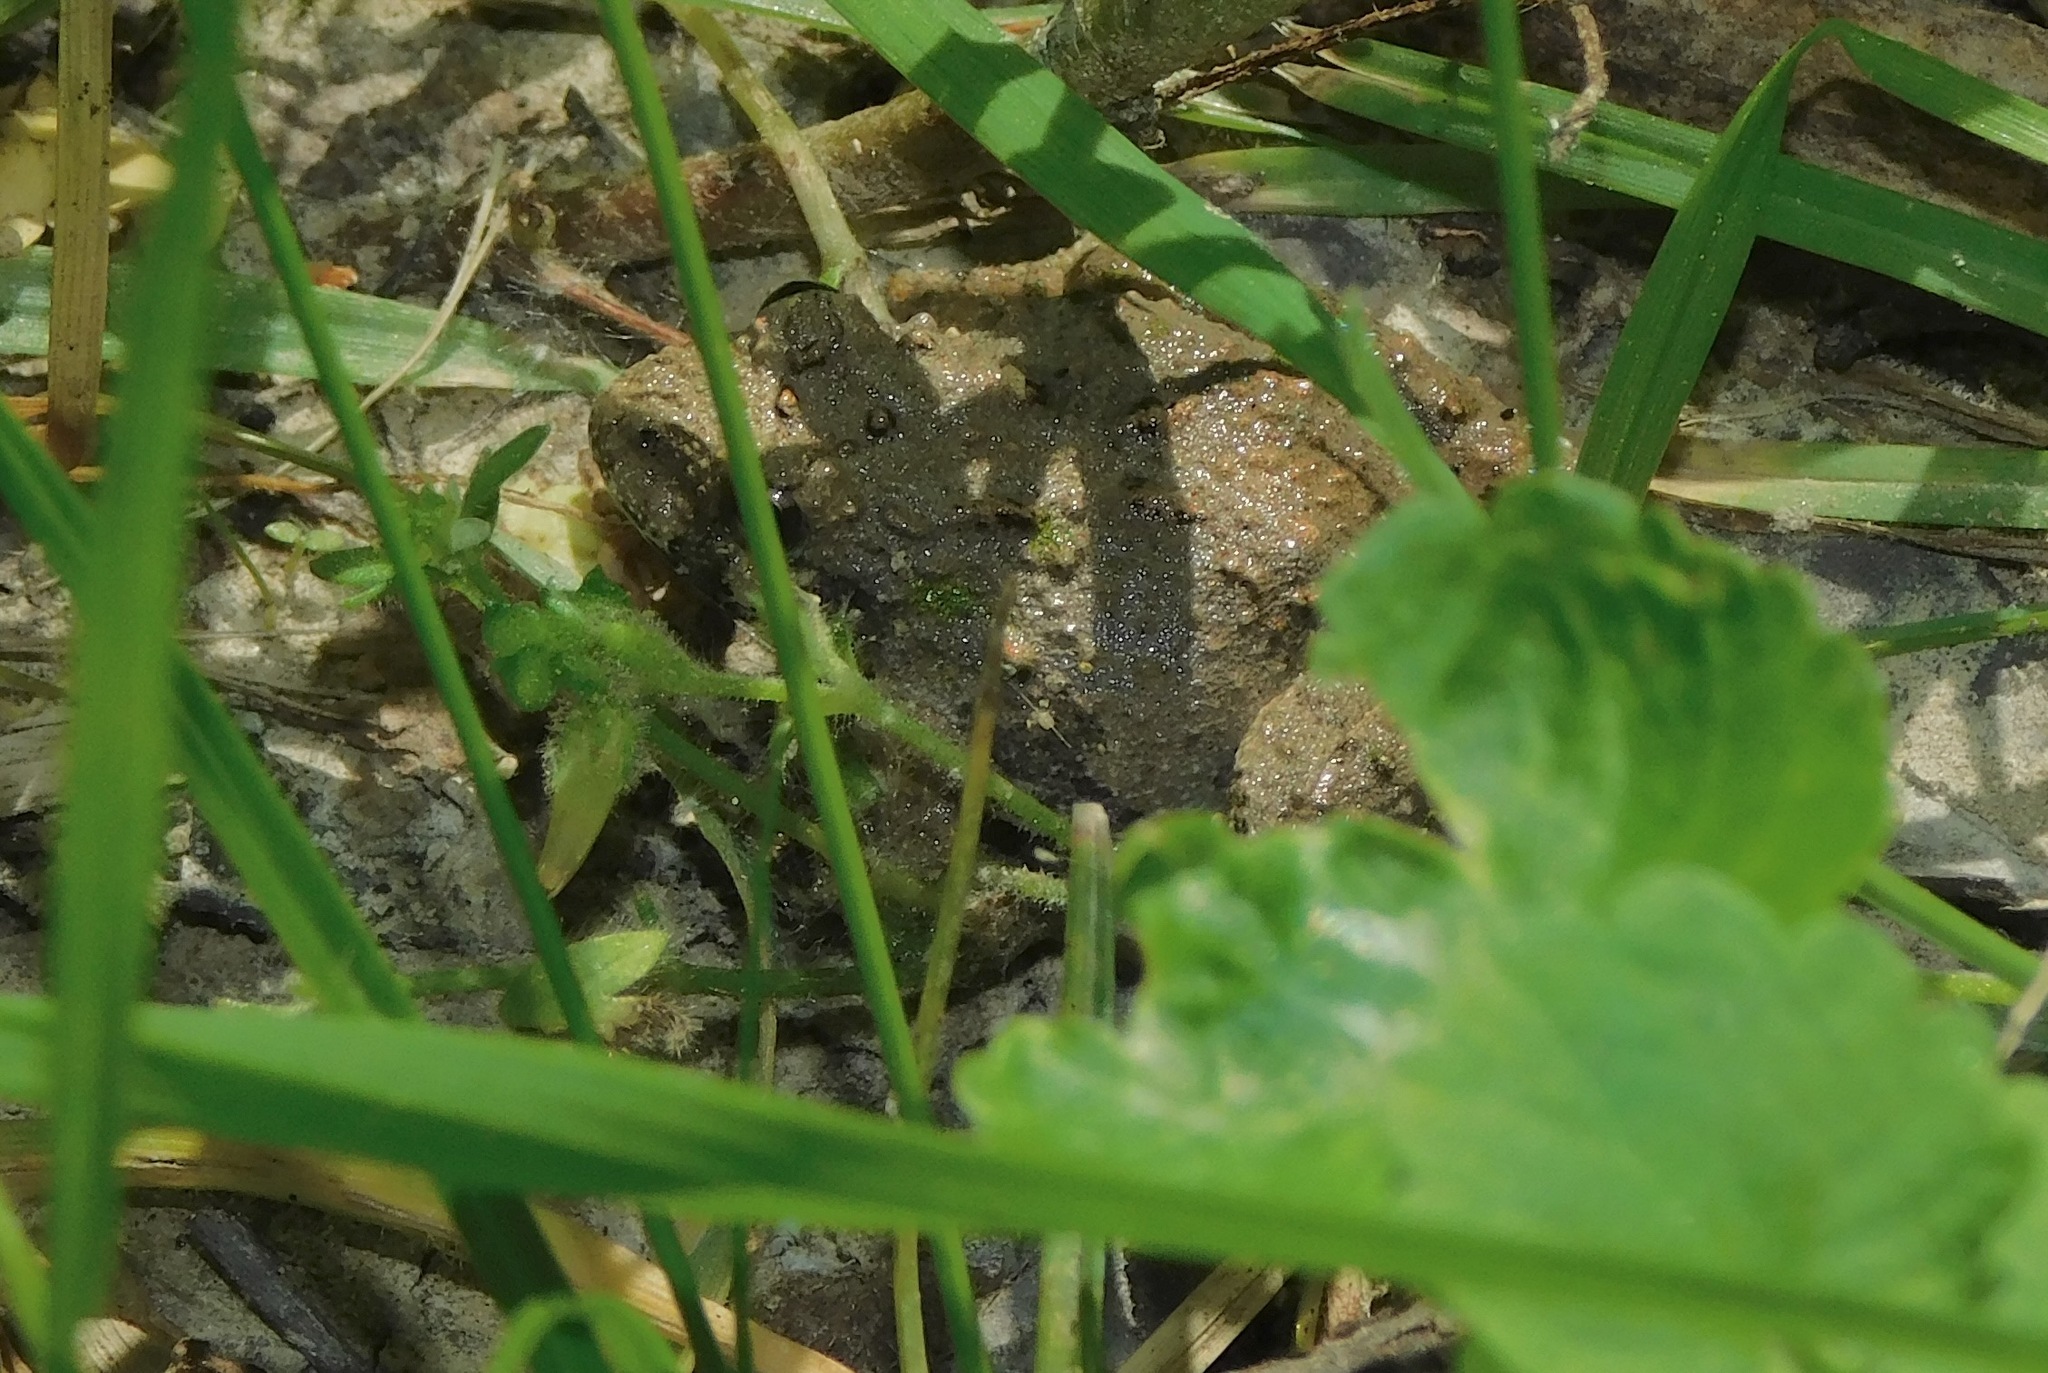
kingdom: Animalia
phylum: Chordata
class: Amphibia
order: Anura
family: Hylidae
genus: Acris
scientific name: Acris crepitans
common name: Northern cricket frog
